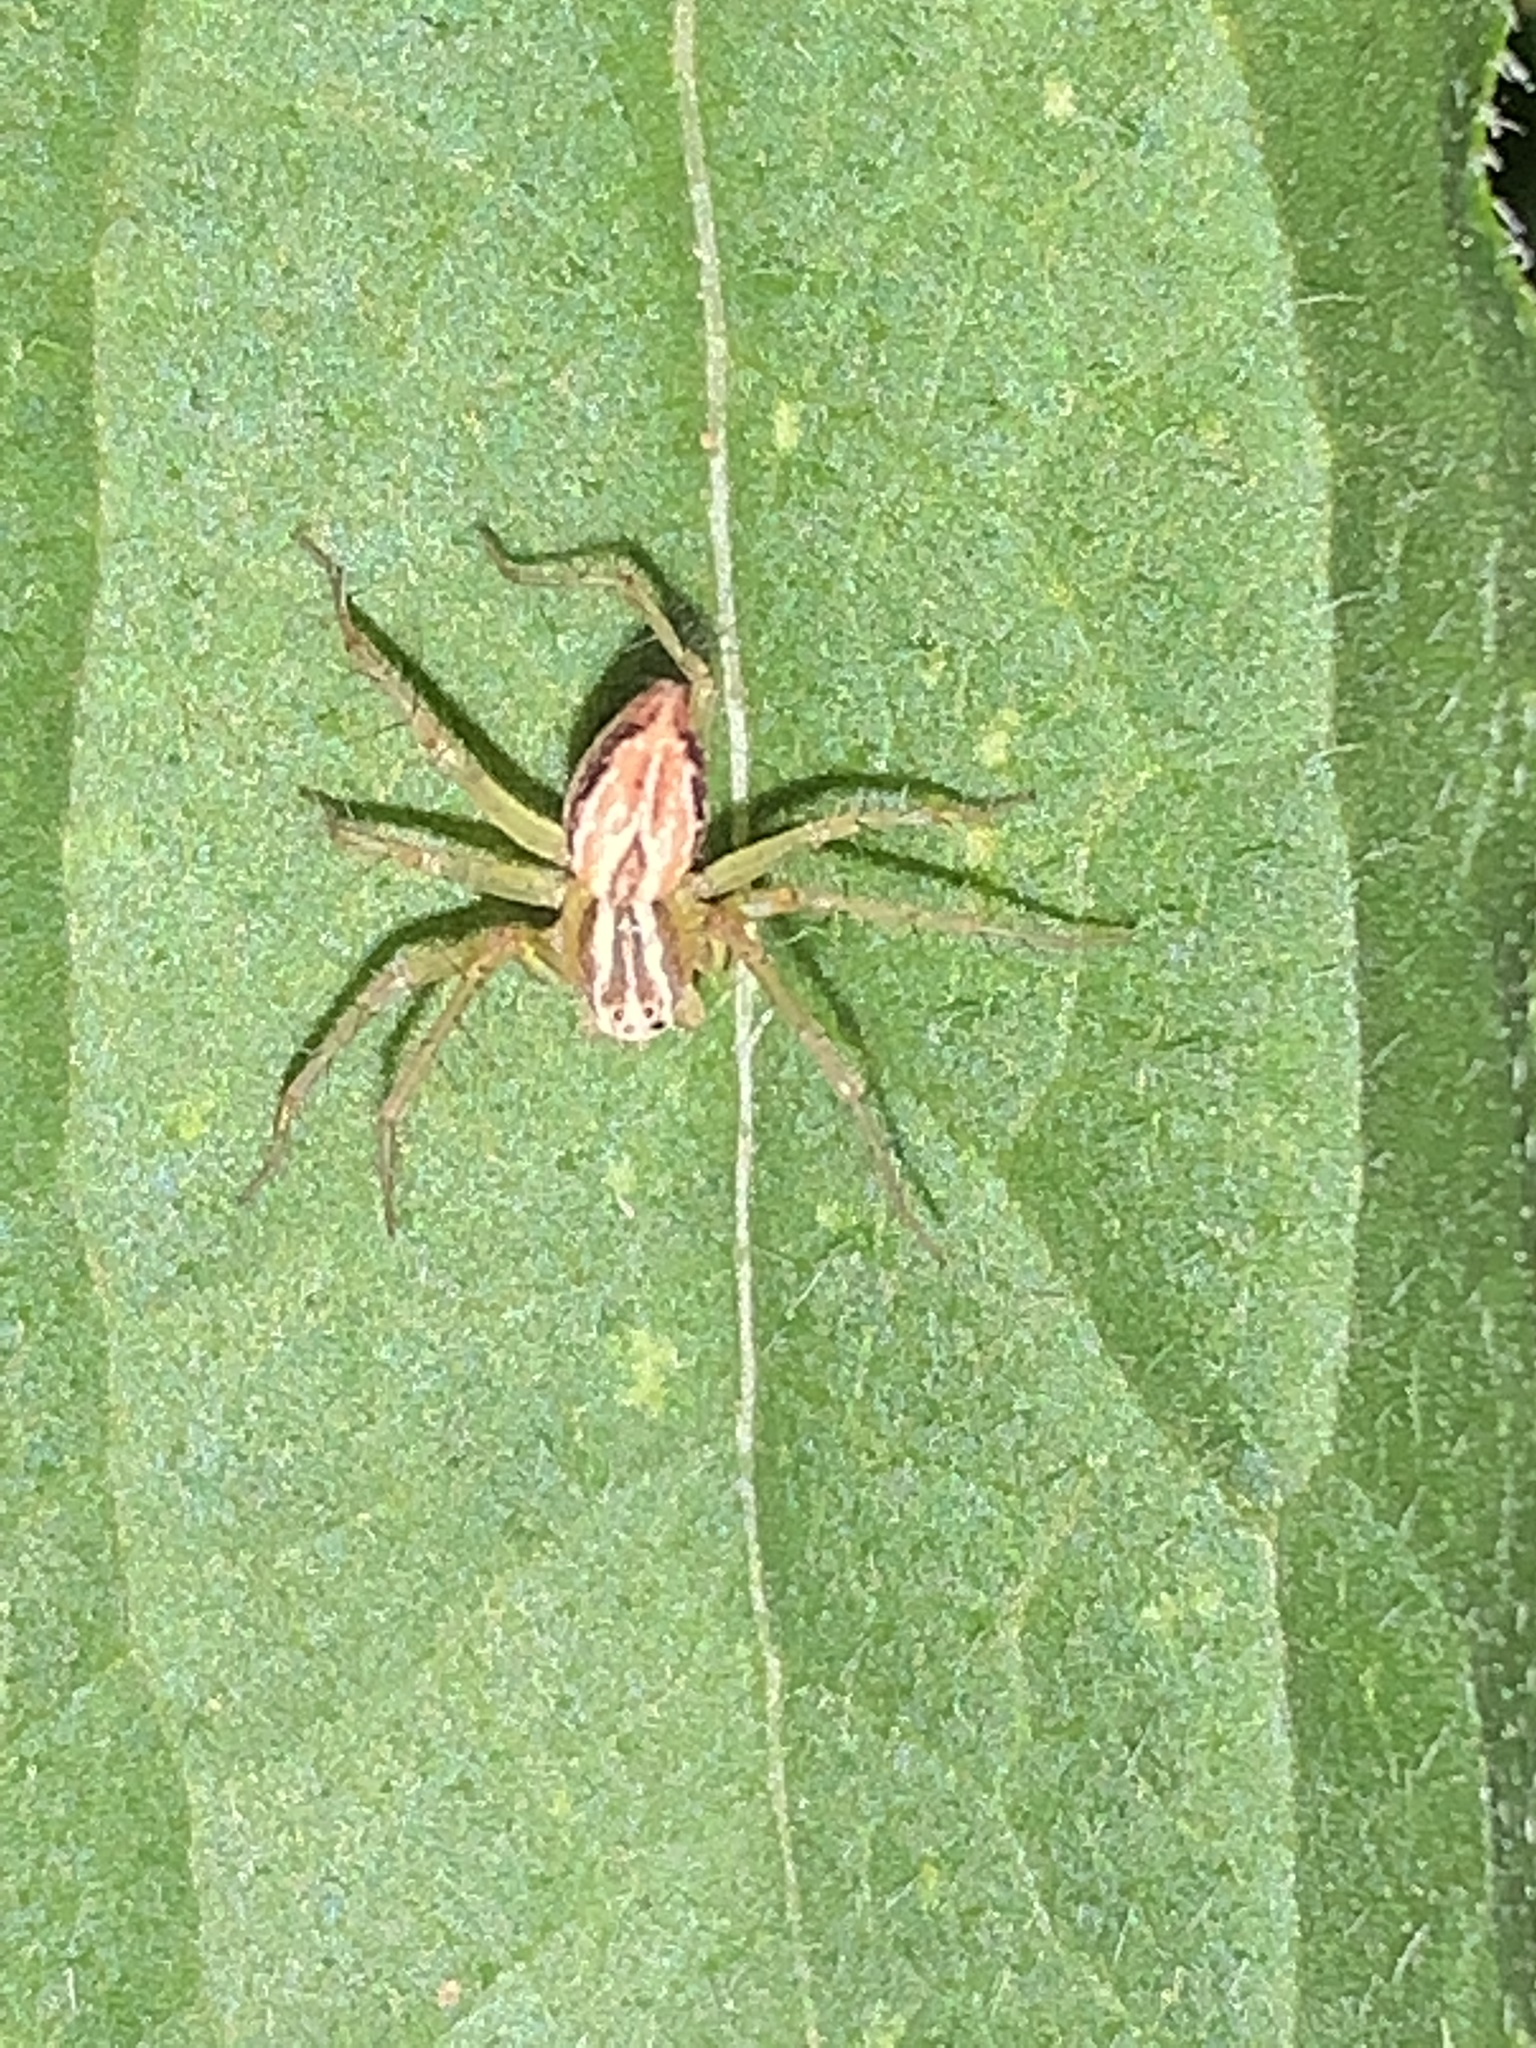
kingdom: Animalia
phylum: Arthropoda
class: Arachnida
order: Araneae
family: Oxyopidae
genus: Oxyopes
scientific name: Oxyopes salticus
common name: Lynx spiders
